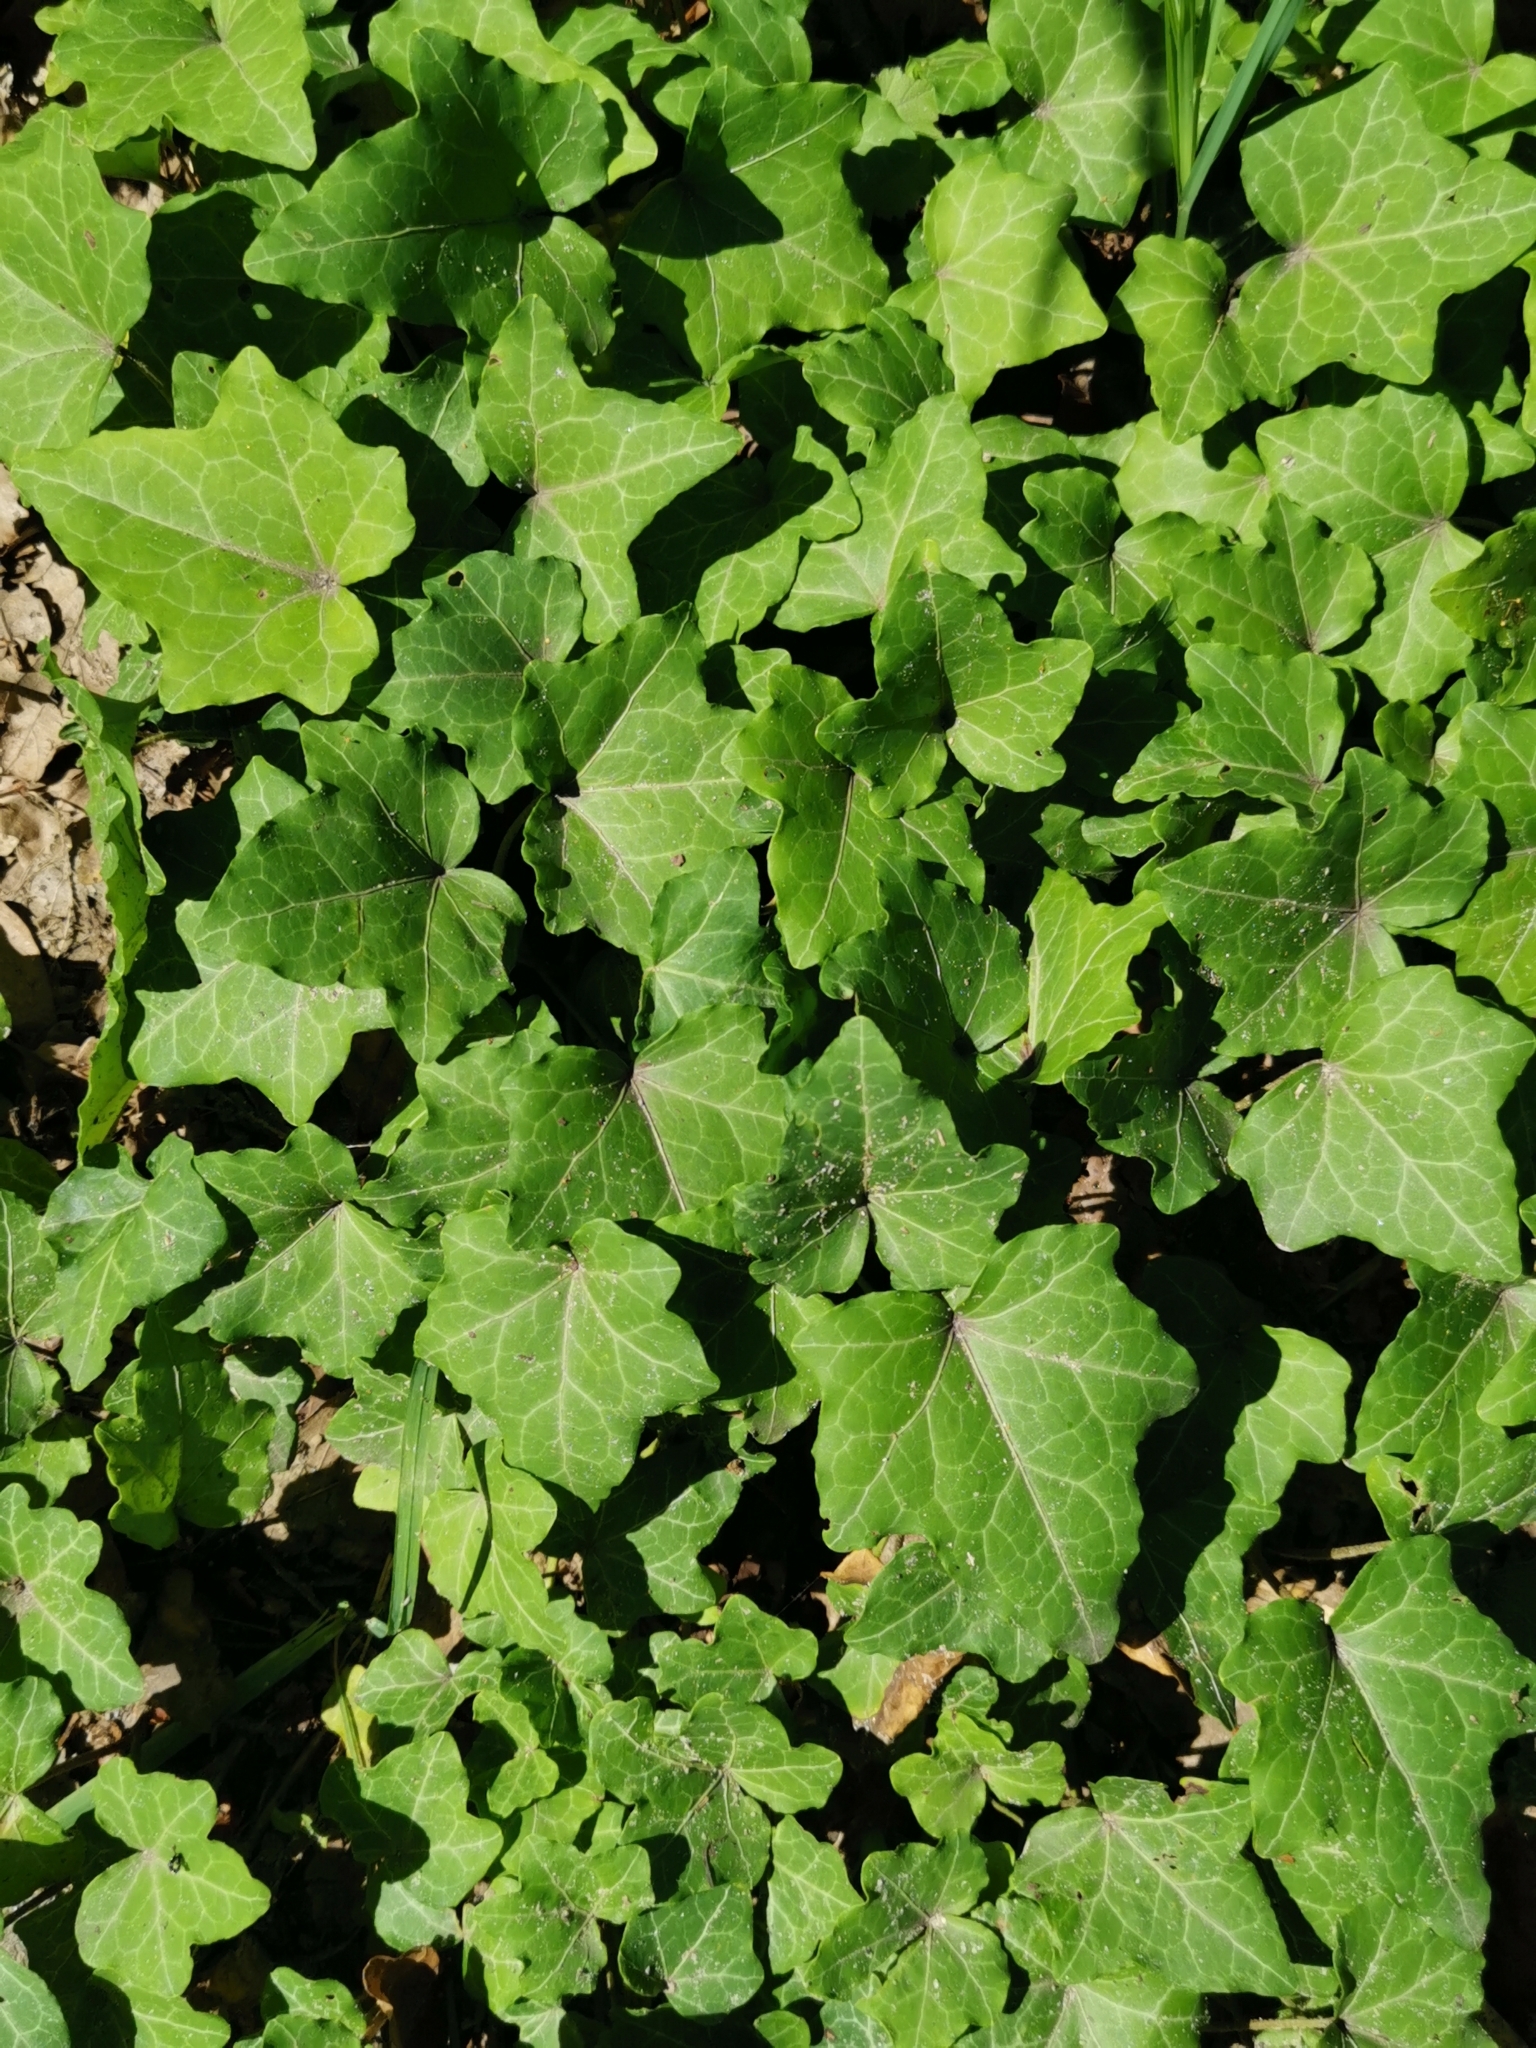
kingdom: Plantae
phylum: Tracheophyta
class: Magnoliopsida
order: Apiales
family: Araliaceae
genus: Hedera
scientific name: Hedera helix
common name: Ivy
